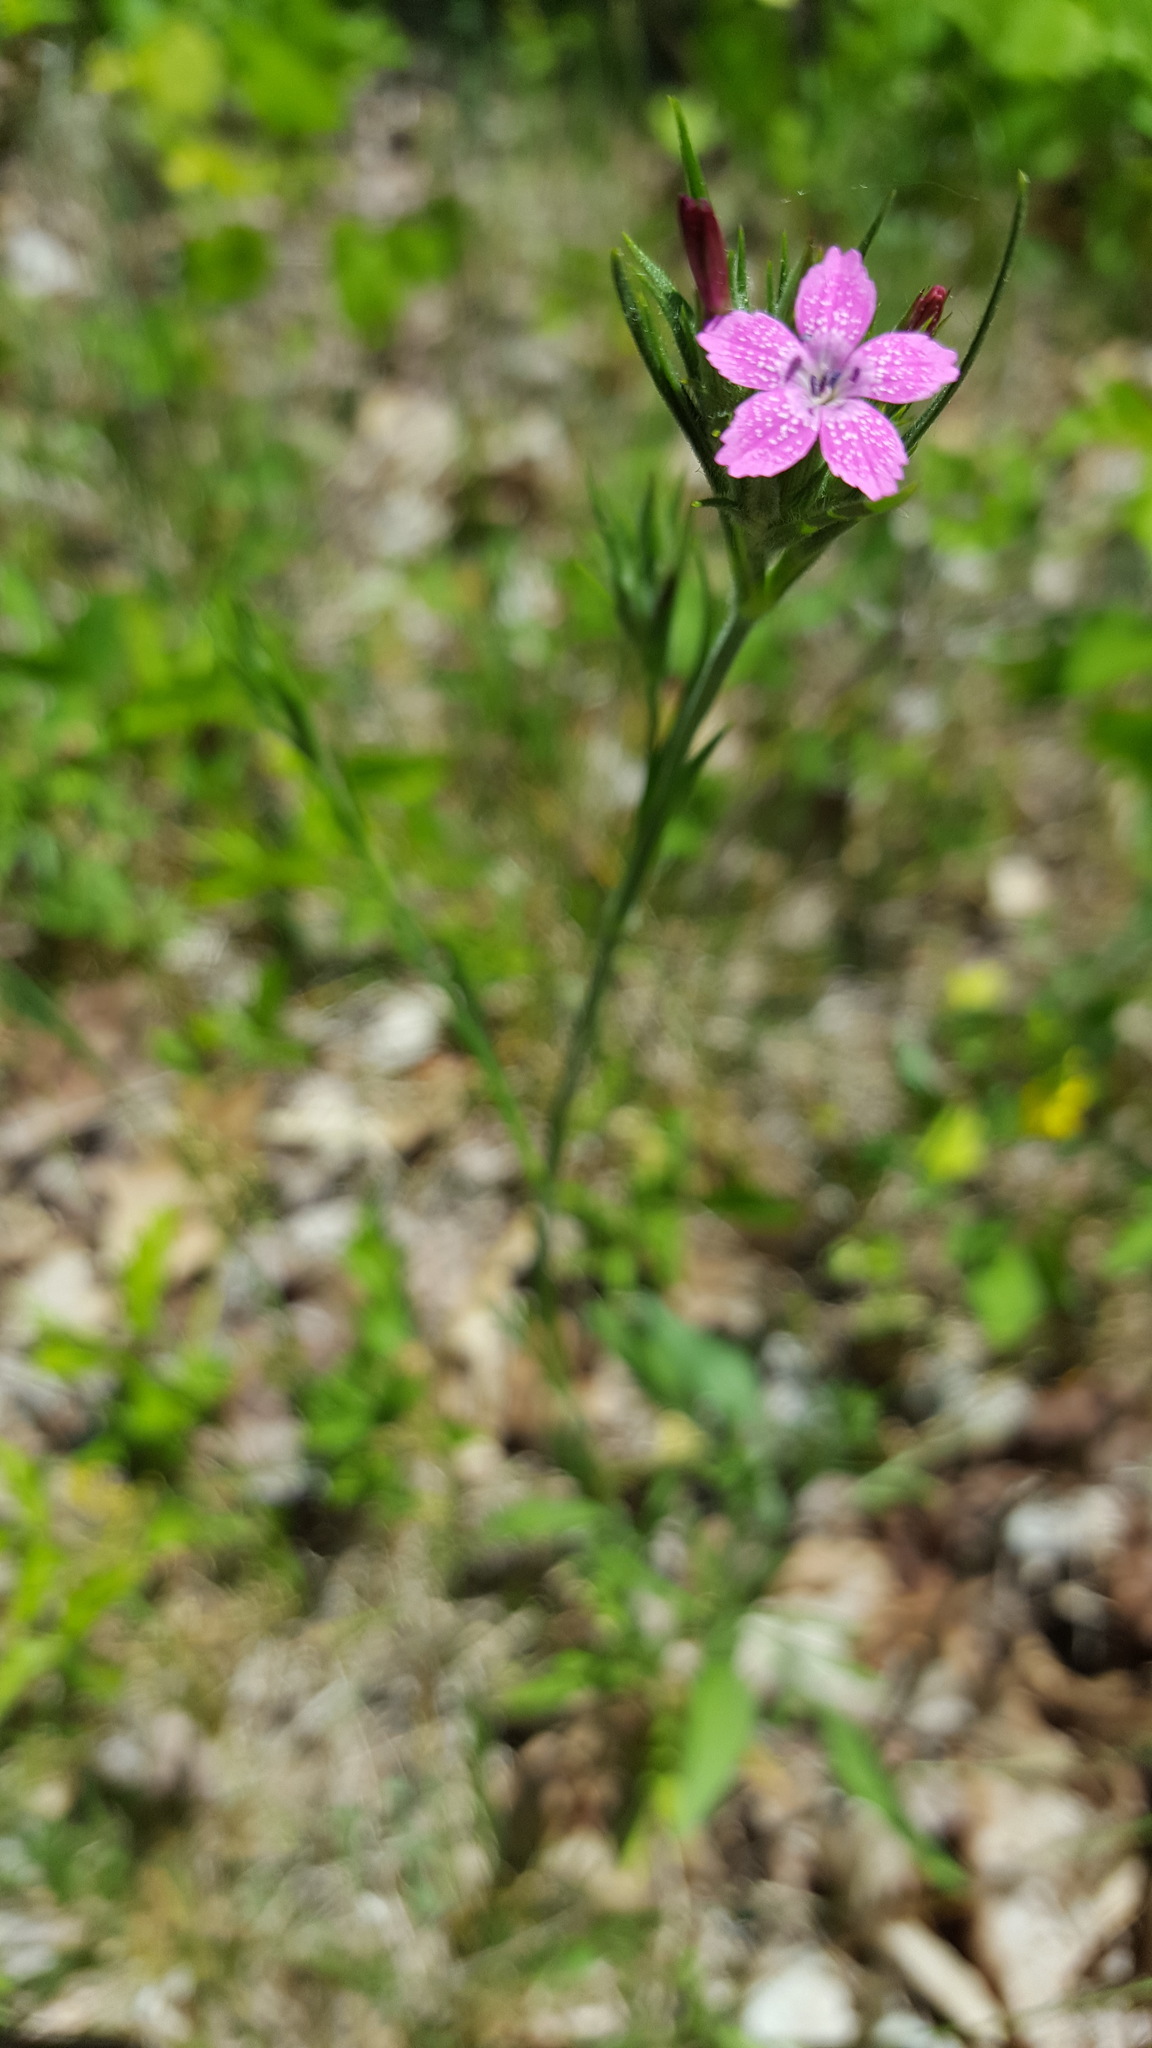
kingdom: Plantae
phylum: Tracheophyta
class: Magnoliopsida
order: Caryophyllales
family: Caryophyllaceae
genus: Dianthus
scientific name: Dianthus armeria
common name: Deptford pink
